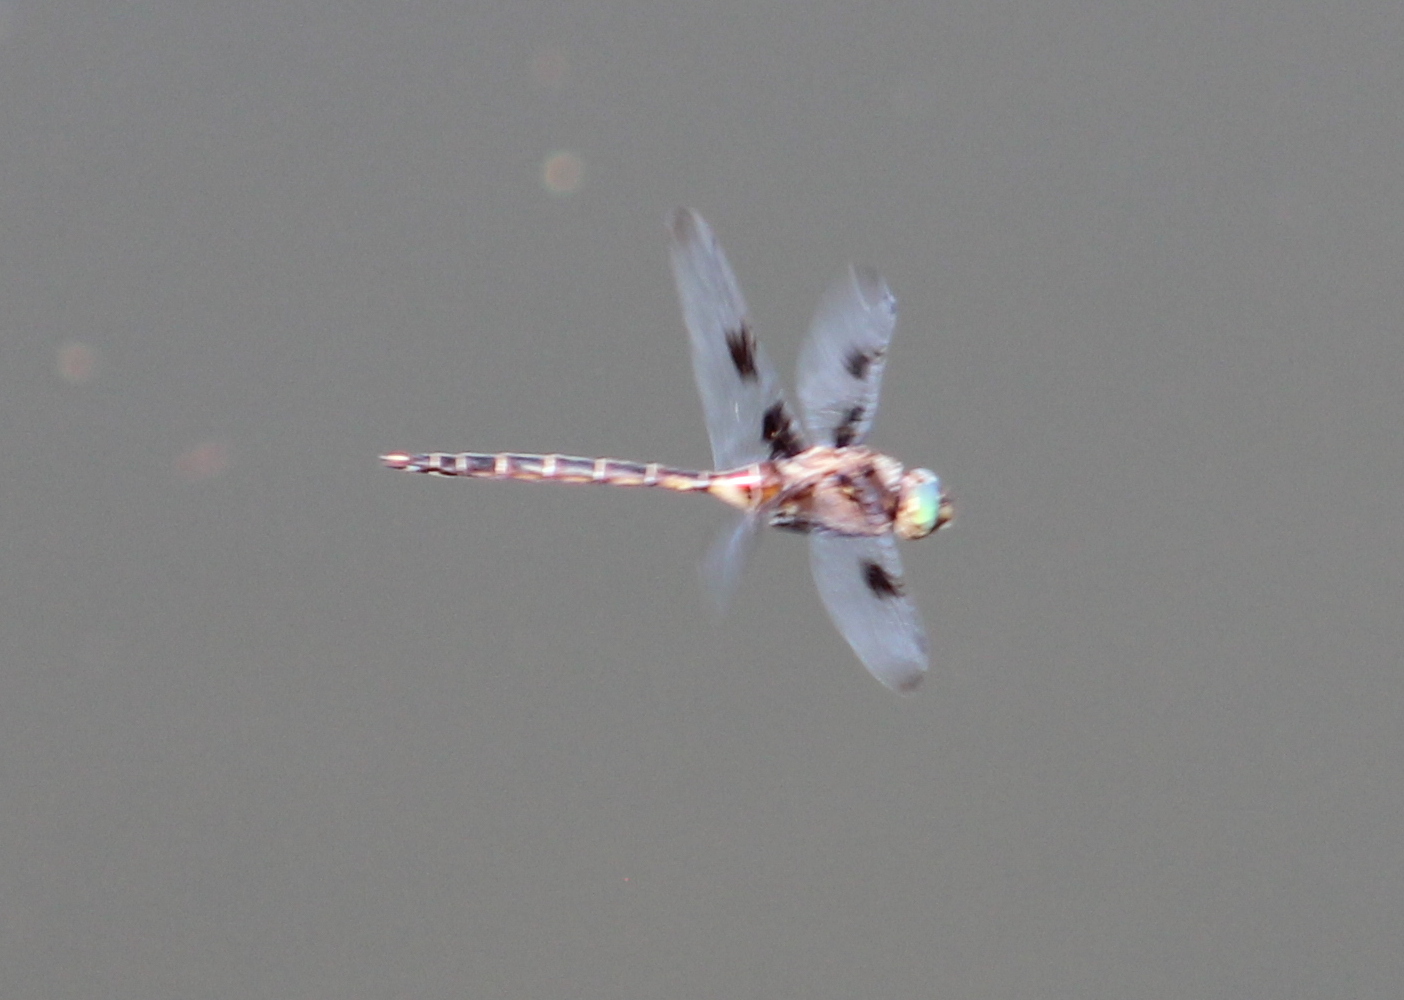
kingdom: Animalia
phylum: Arthropoda
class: Insecta
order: Odonata
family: Corduliidae
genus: Epitheca
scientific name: Epitheca princeps
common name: Prince baskettail
